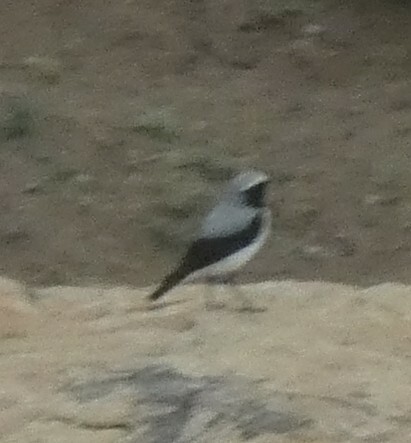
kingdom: Animalia
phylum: Chordata
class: Aves
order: Passeriformes
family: Muscicapidae
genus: Oenanthe
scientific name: Oenanthe oenanthe
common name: Northern wheatear
